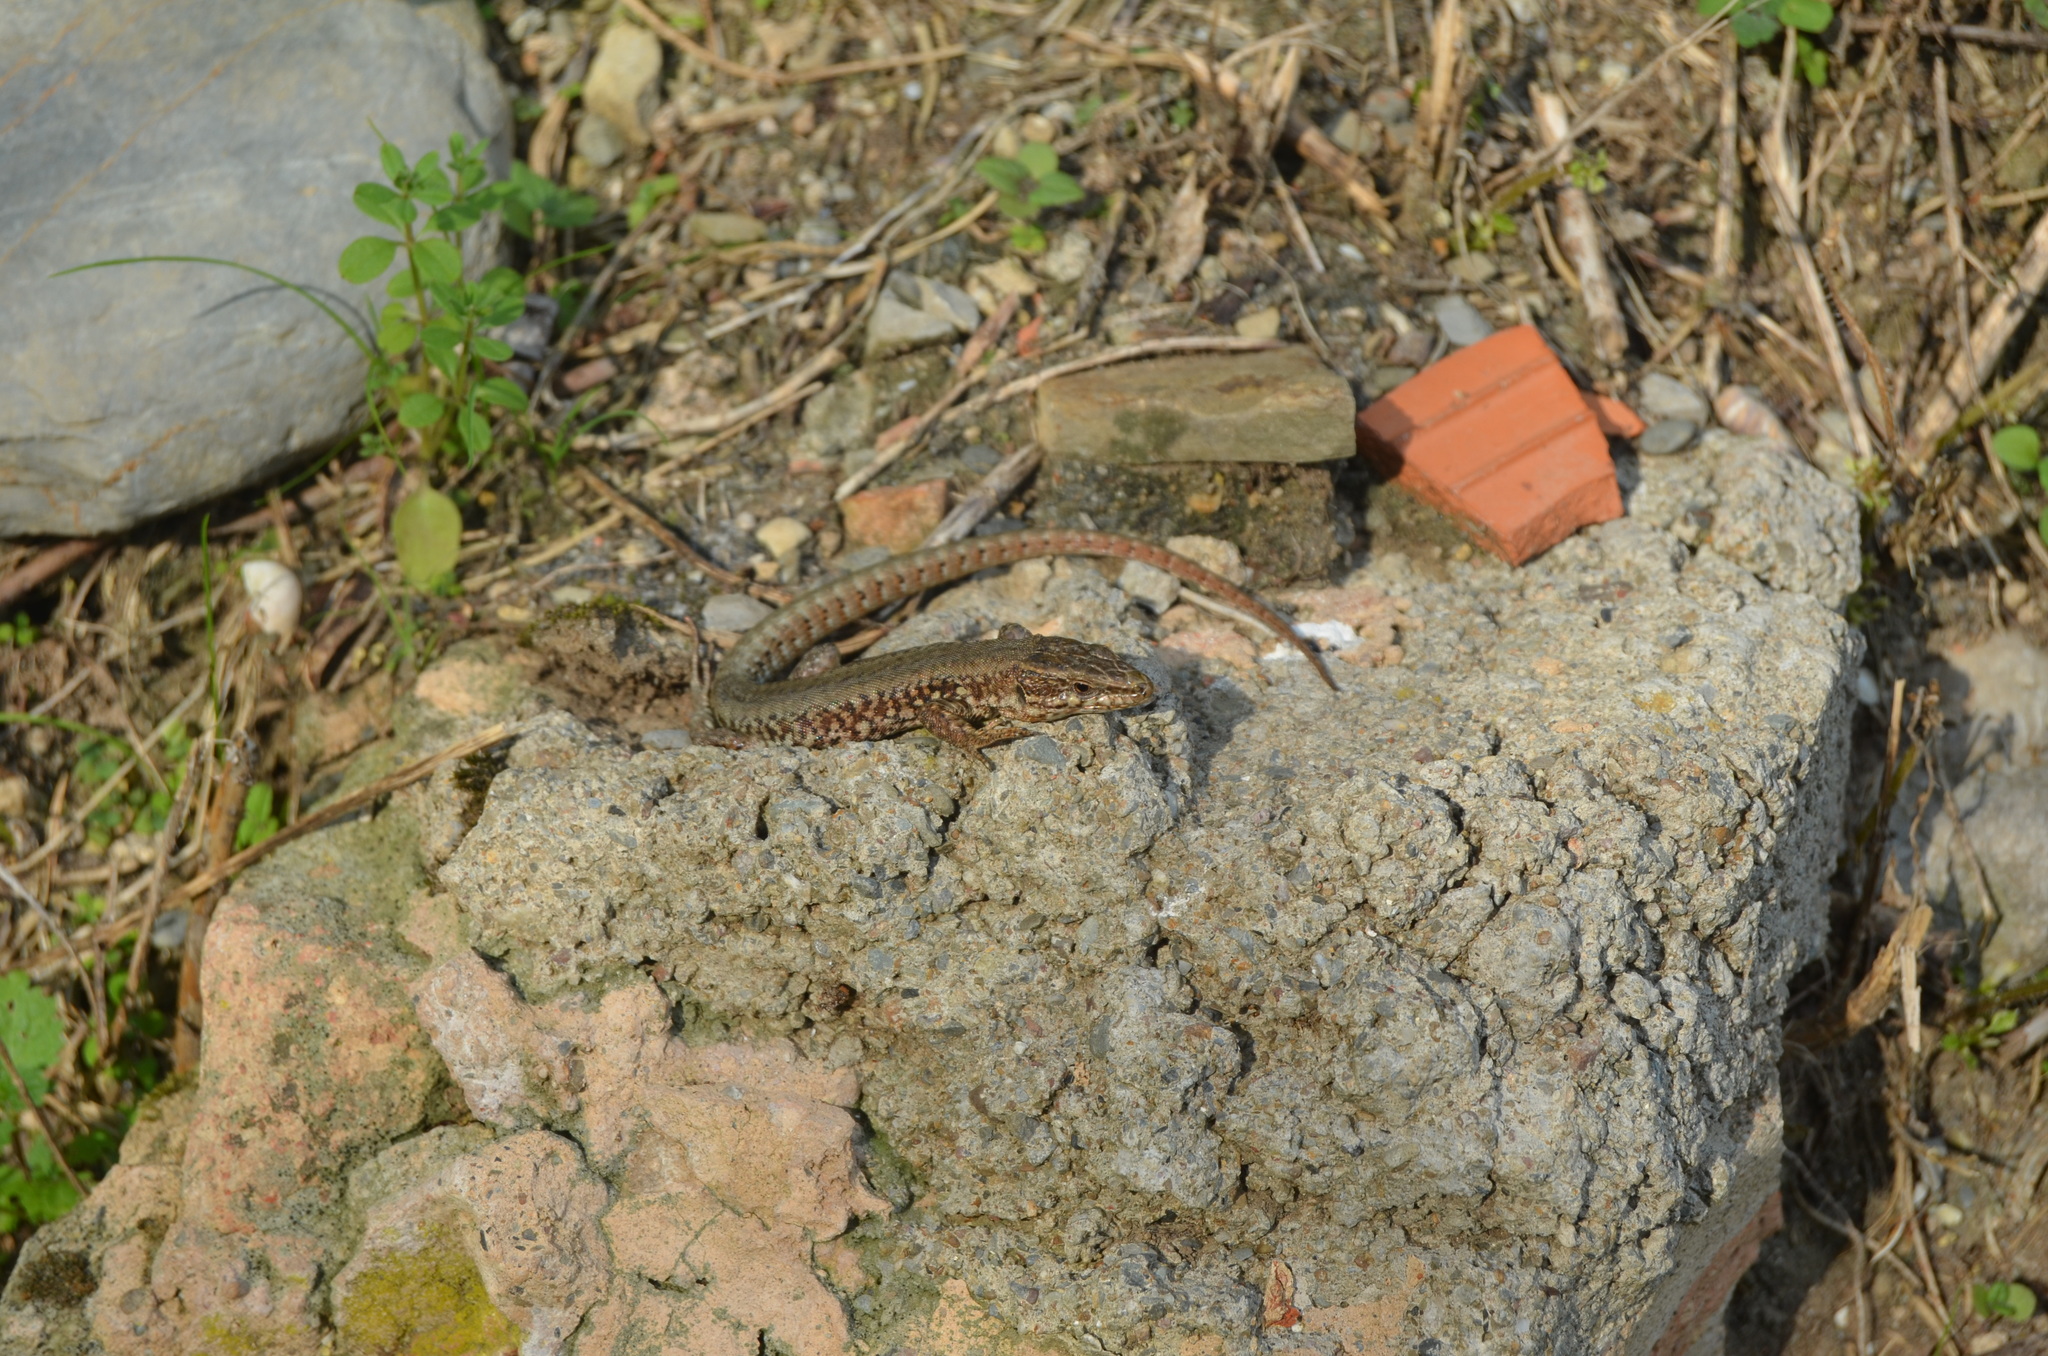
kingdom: Animalia
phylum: Chordata
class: Squamata
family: Lacertidae
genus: Podarcis
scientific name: Podarcis muralis
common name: Common wall lizard
